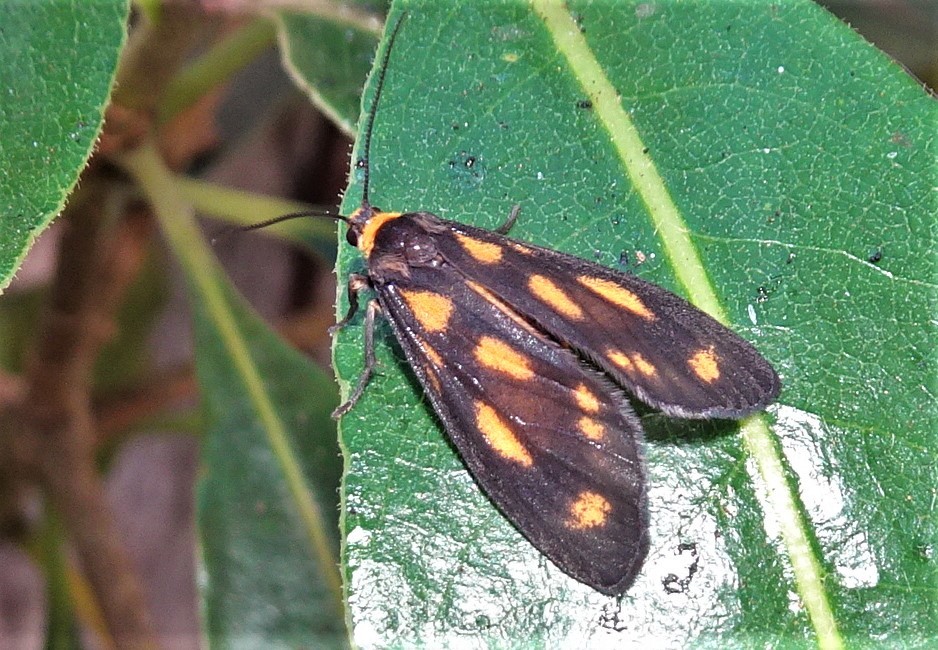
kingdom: Animalia
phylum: Arthropoda
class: Insecta
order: Lepidoptera
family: Erebidae
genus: Asura
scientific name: Asura cervicalis
